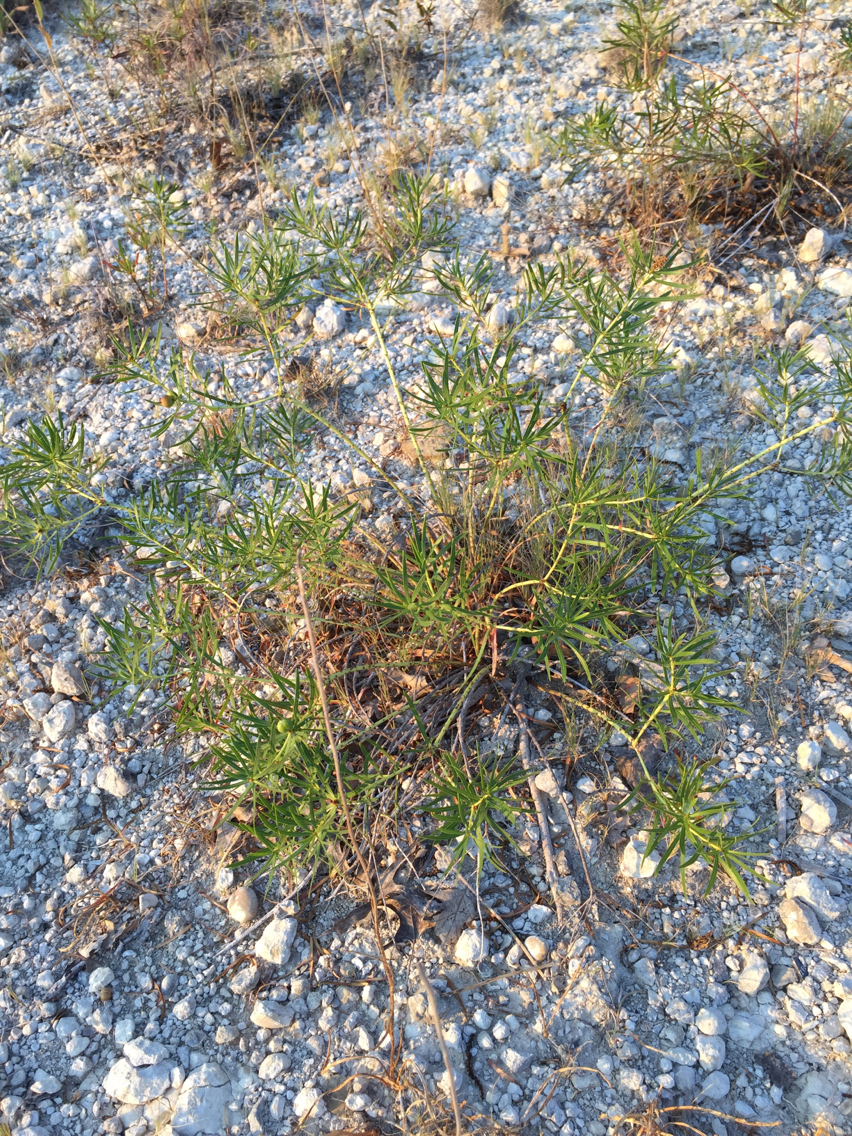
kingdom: Plantae
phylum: Tracheophyta
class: Magnoliopsida
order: Malpighiales
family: Euphorbiaceae
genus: Stillingia
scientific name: Stillingia texana
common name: Texas stillingia
